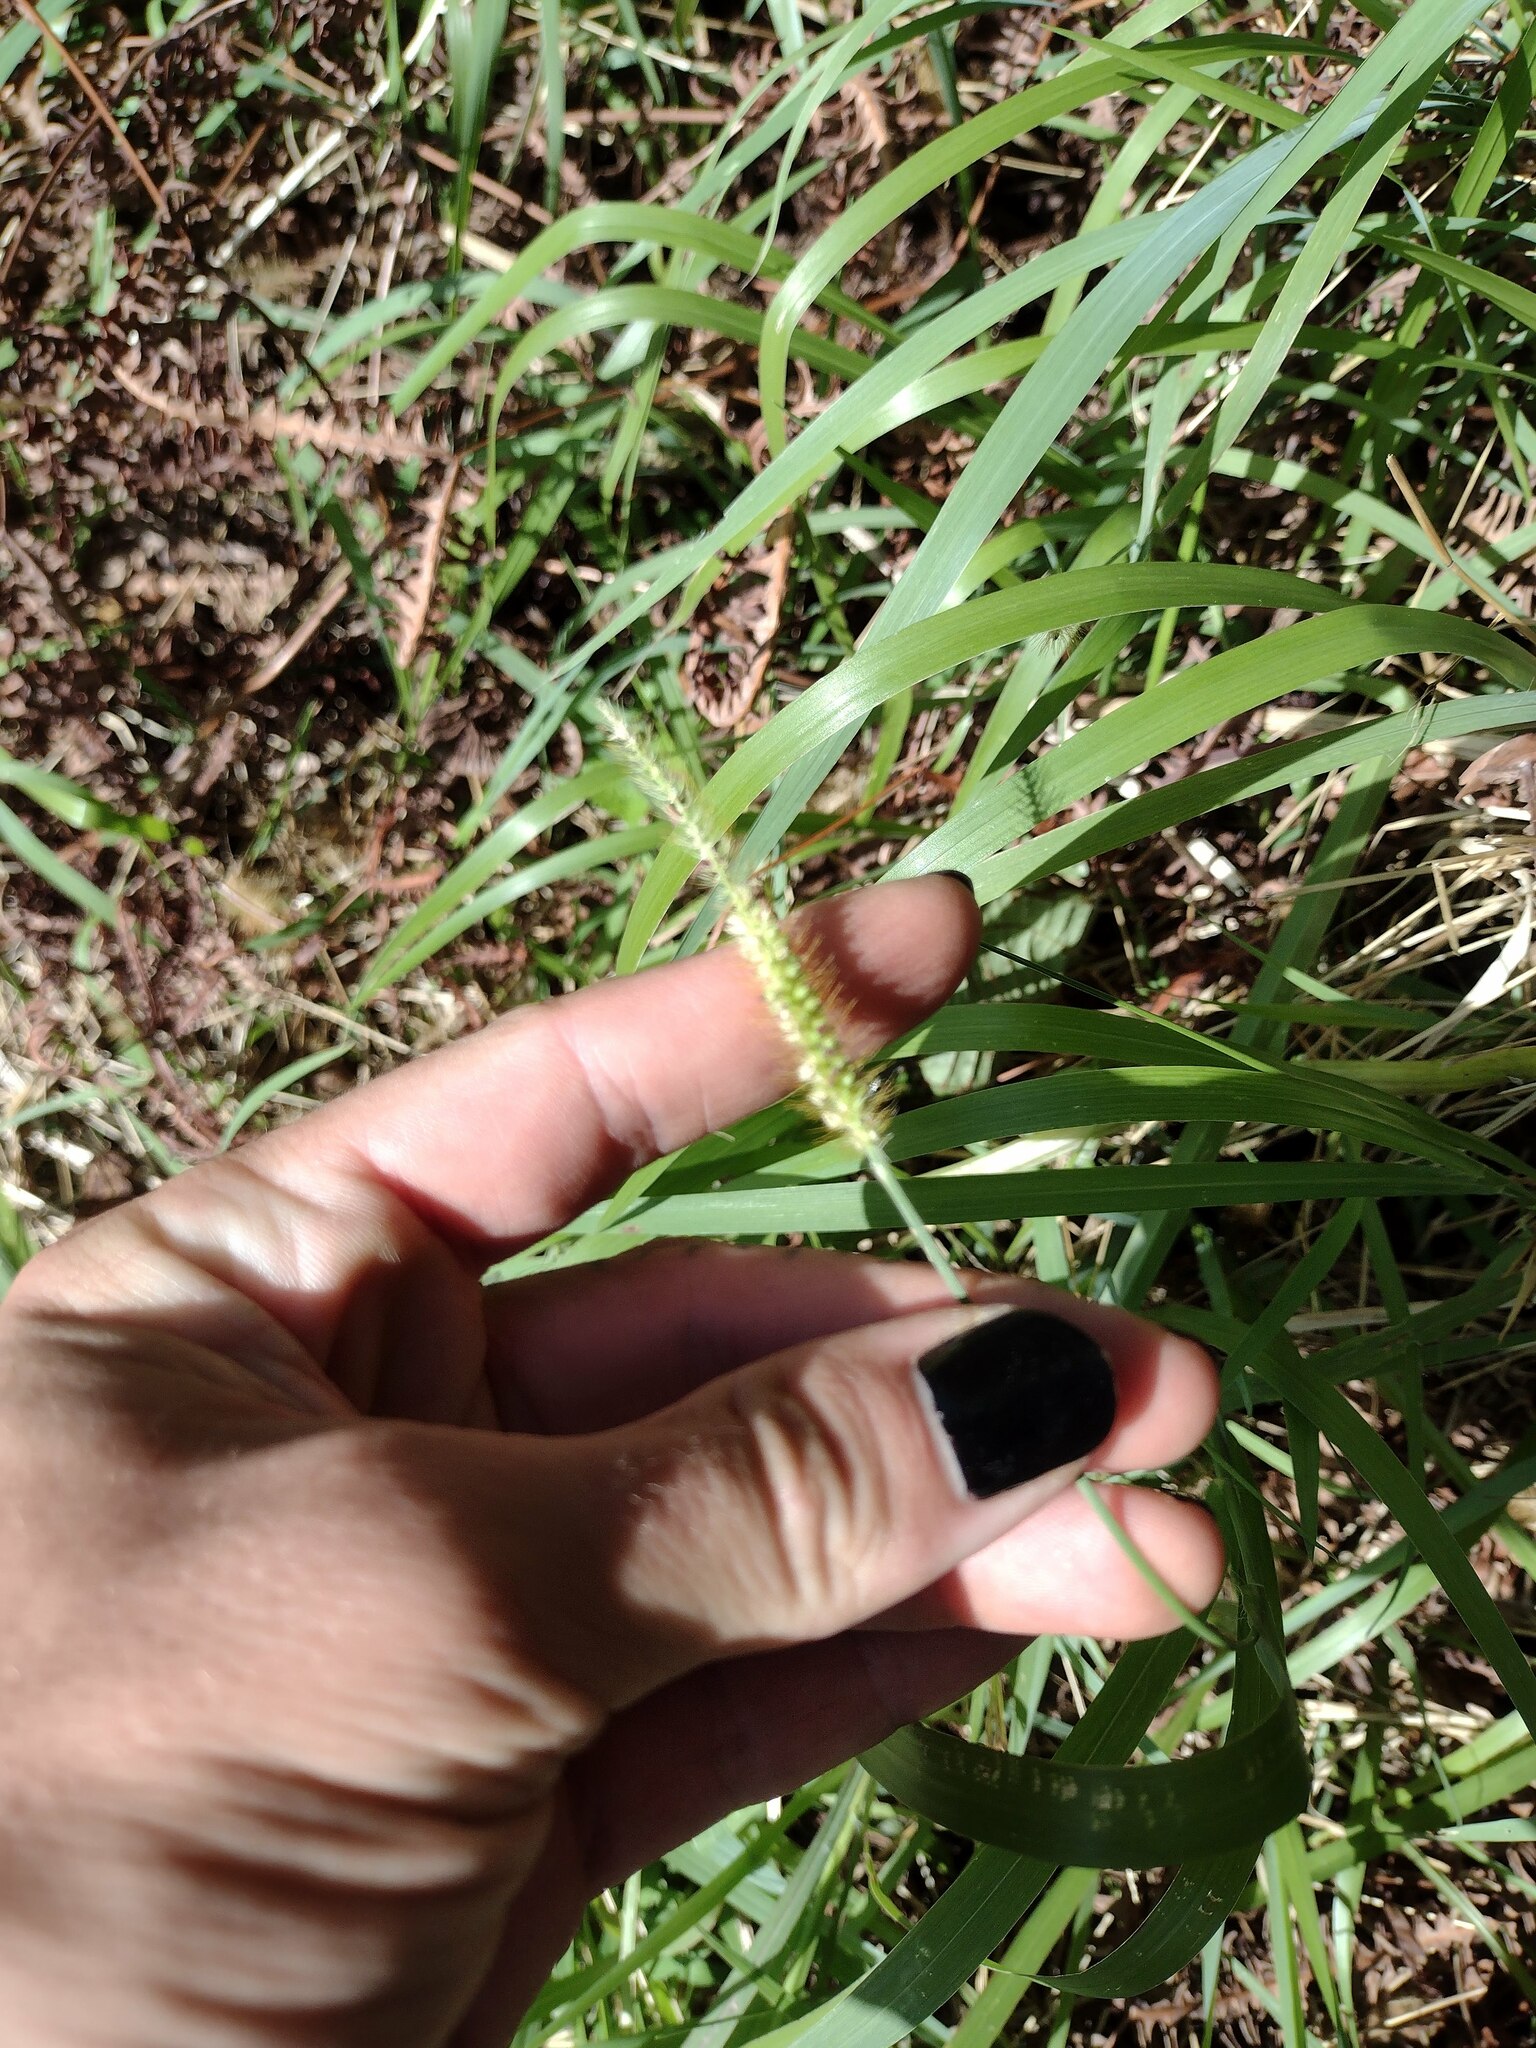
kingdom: Plantae
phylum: Tracheophyta
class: Liliopsida
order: Poales
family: Poaceae
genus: Setaria
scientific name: Setaria parviflora
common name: Knotroot bristle-grass
